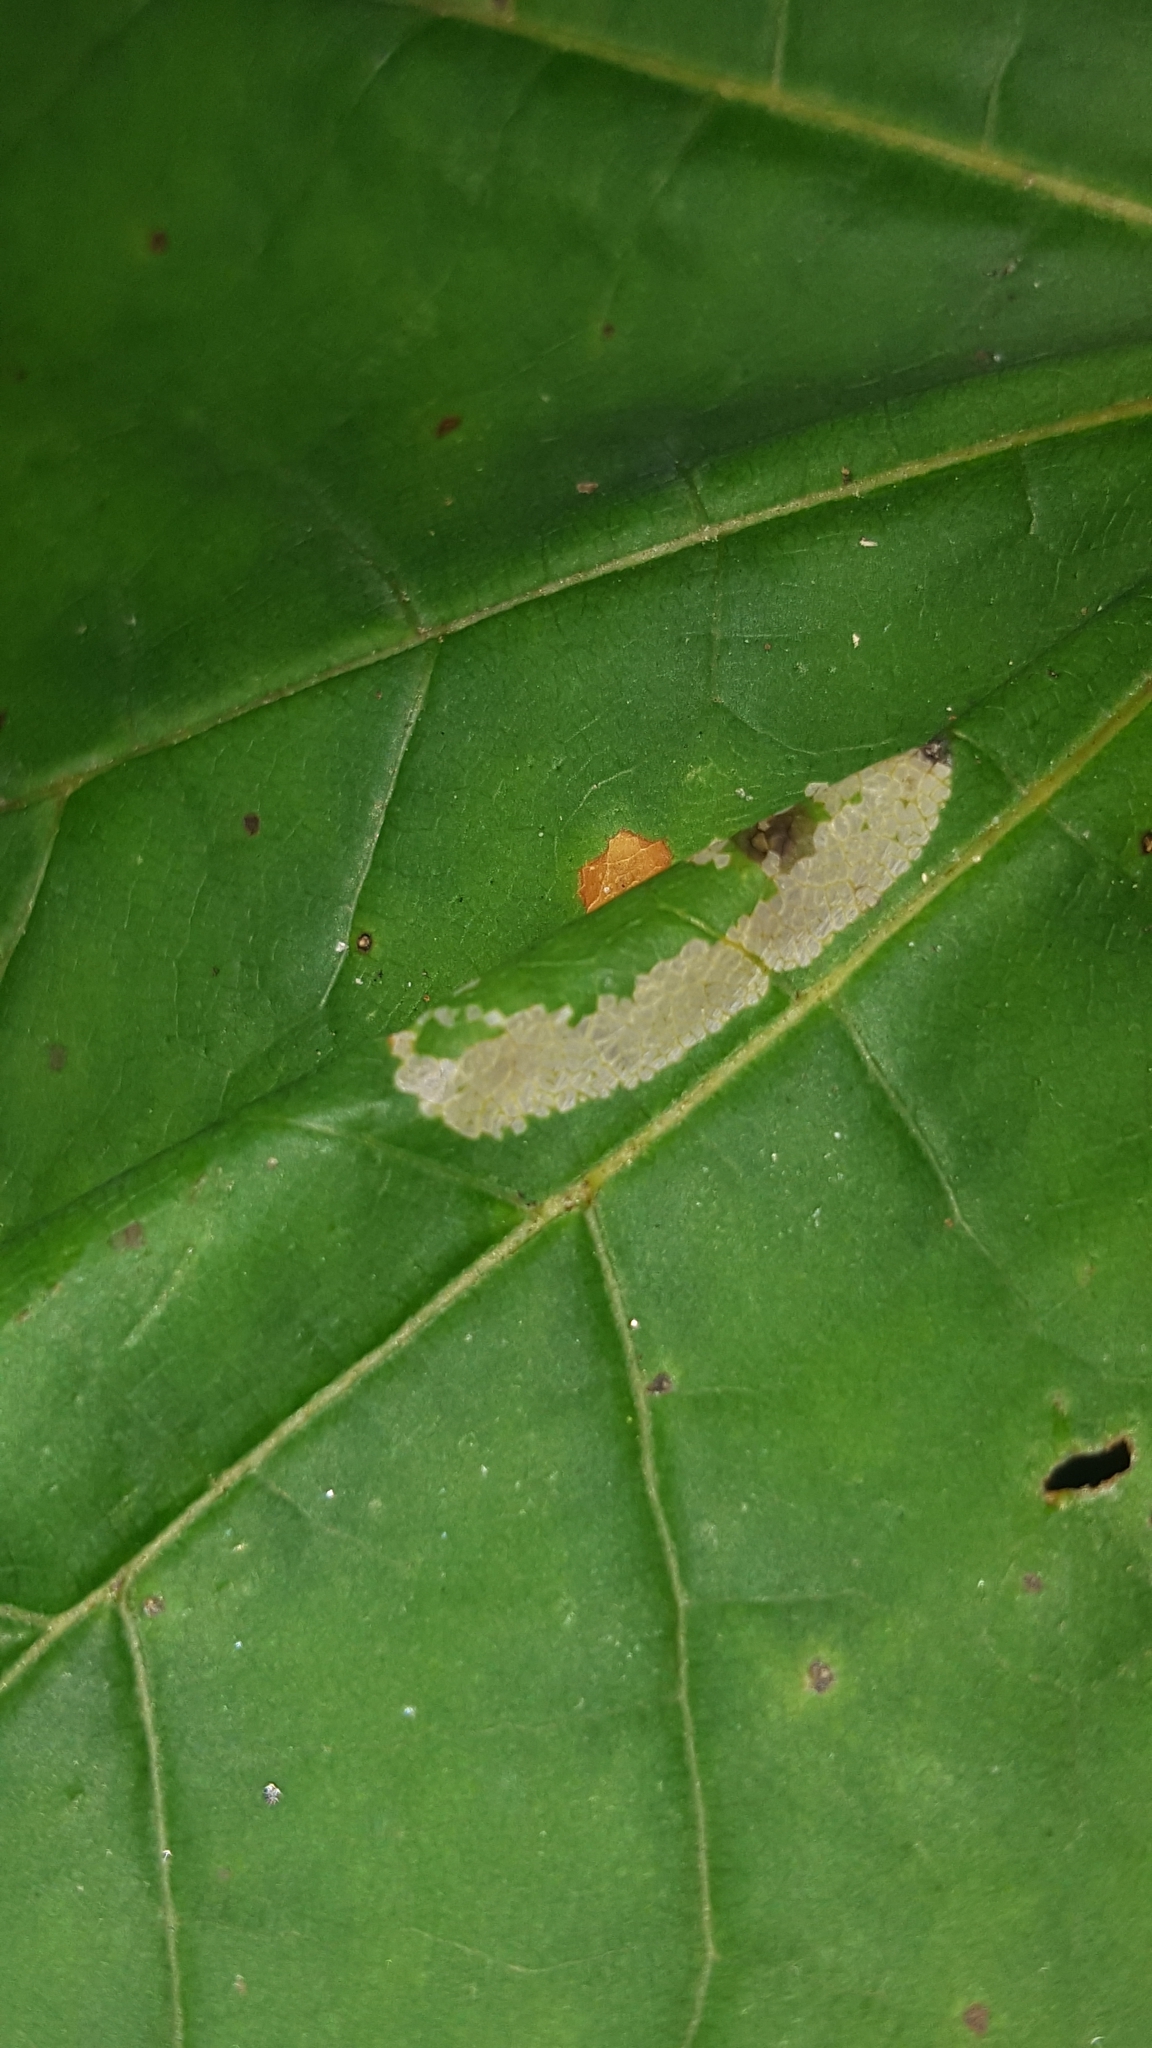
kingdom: Animalia
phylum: Arthropoda
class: Insecta
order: Lepidoptera
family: Gracillariidae
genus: Phyllonorycter
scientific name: Phyllonorycter joannisi
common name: White-bodied midget
